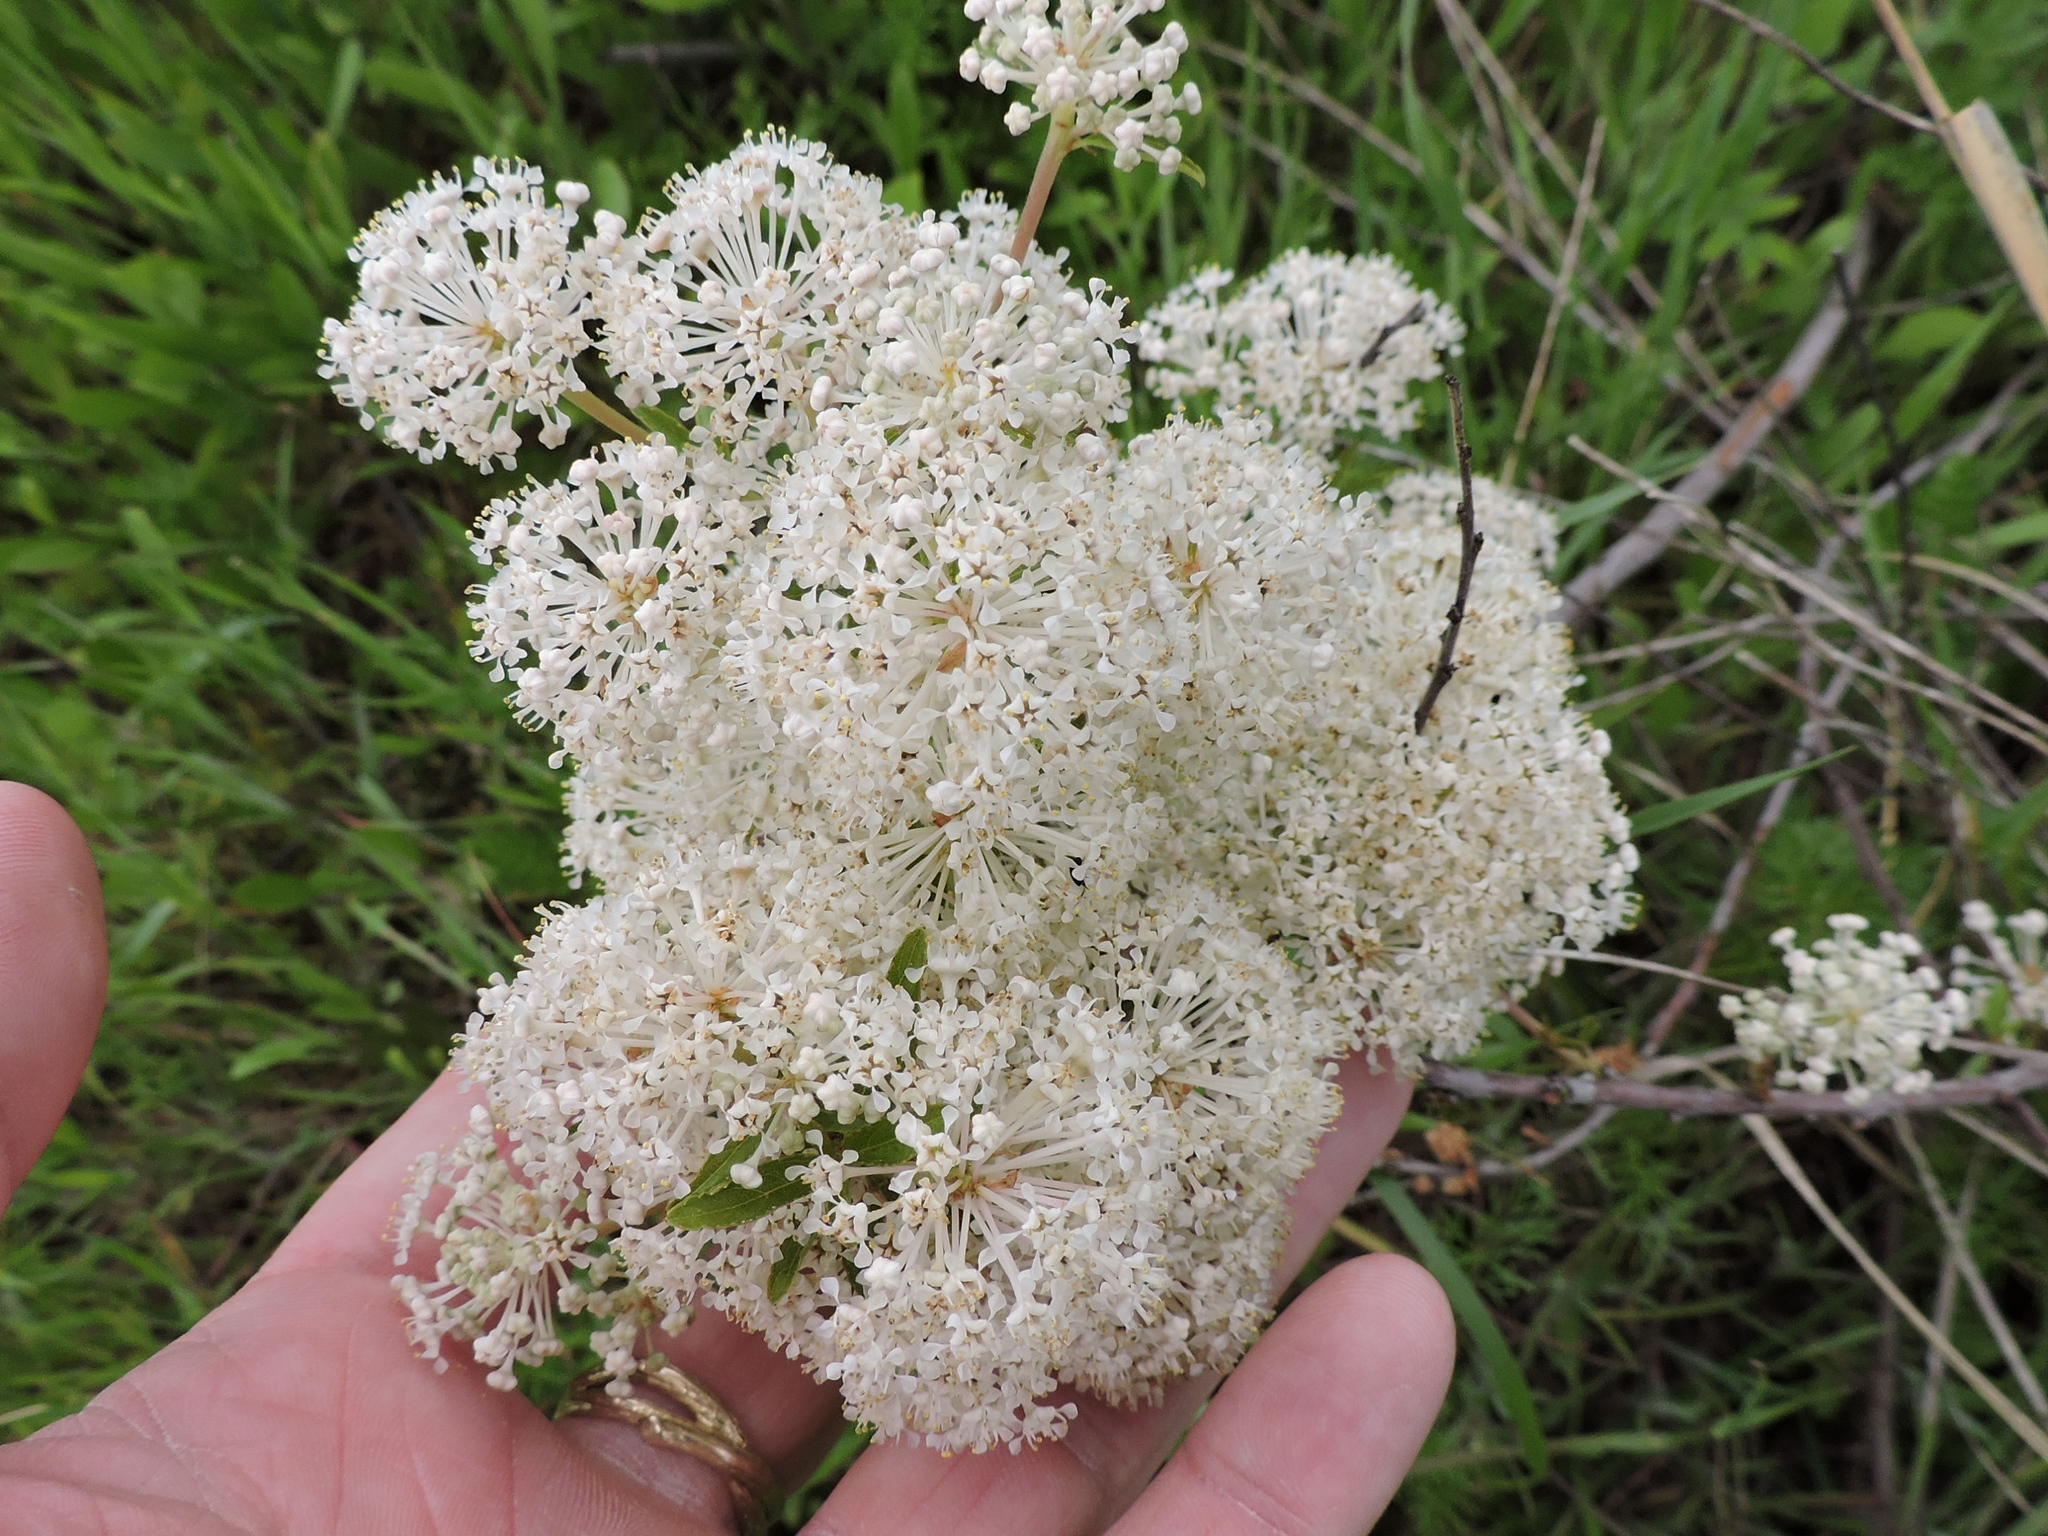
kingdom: Plantae
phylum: Tracheophyta
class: Magnoliopsida
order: Rosales
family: Rhamnaceae
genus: Ceanothus
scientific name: Ceanothus herbaceus
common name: Inland ceanothus
